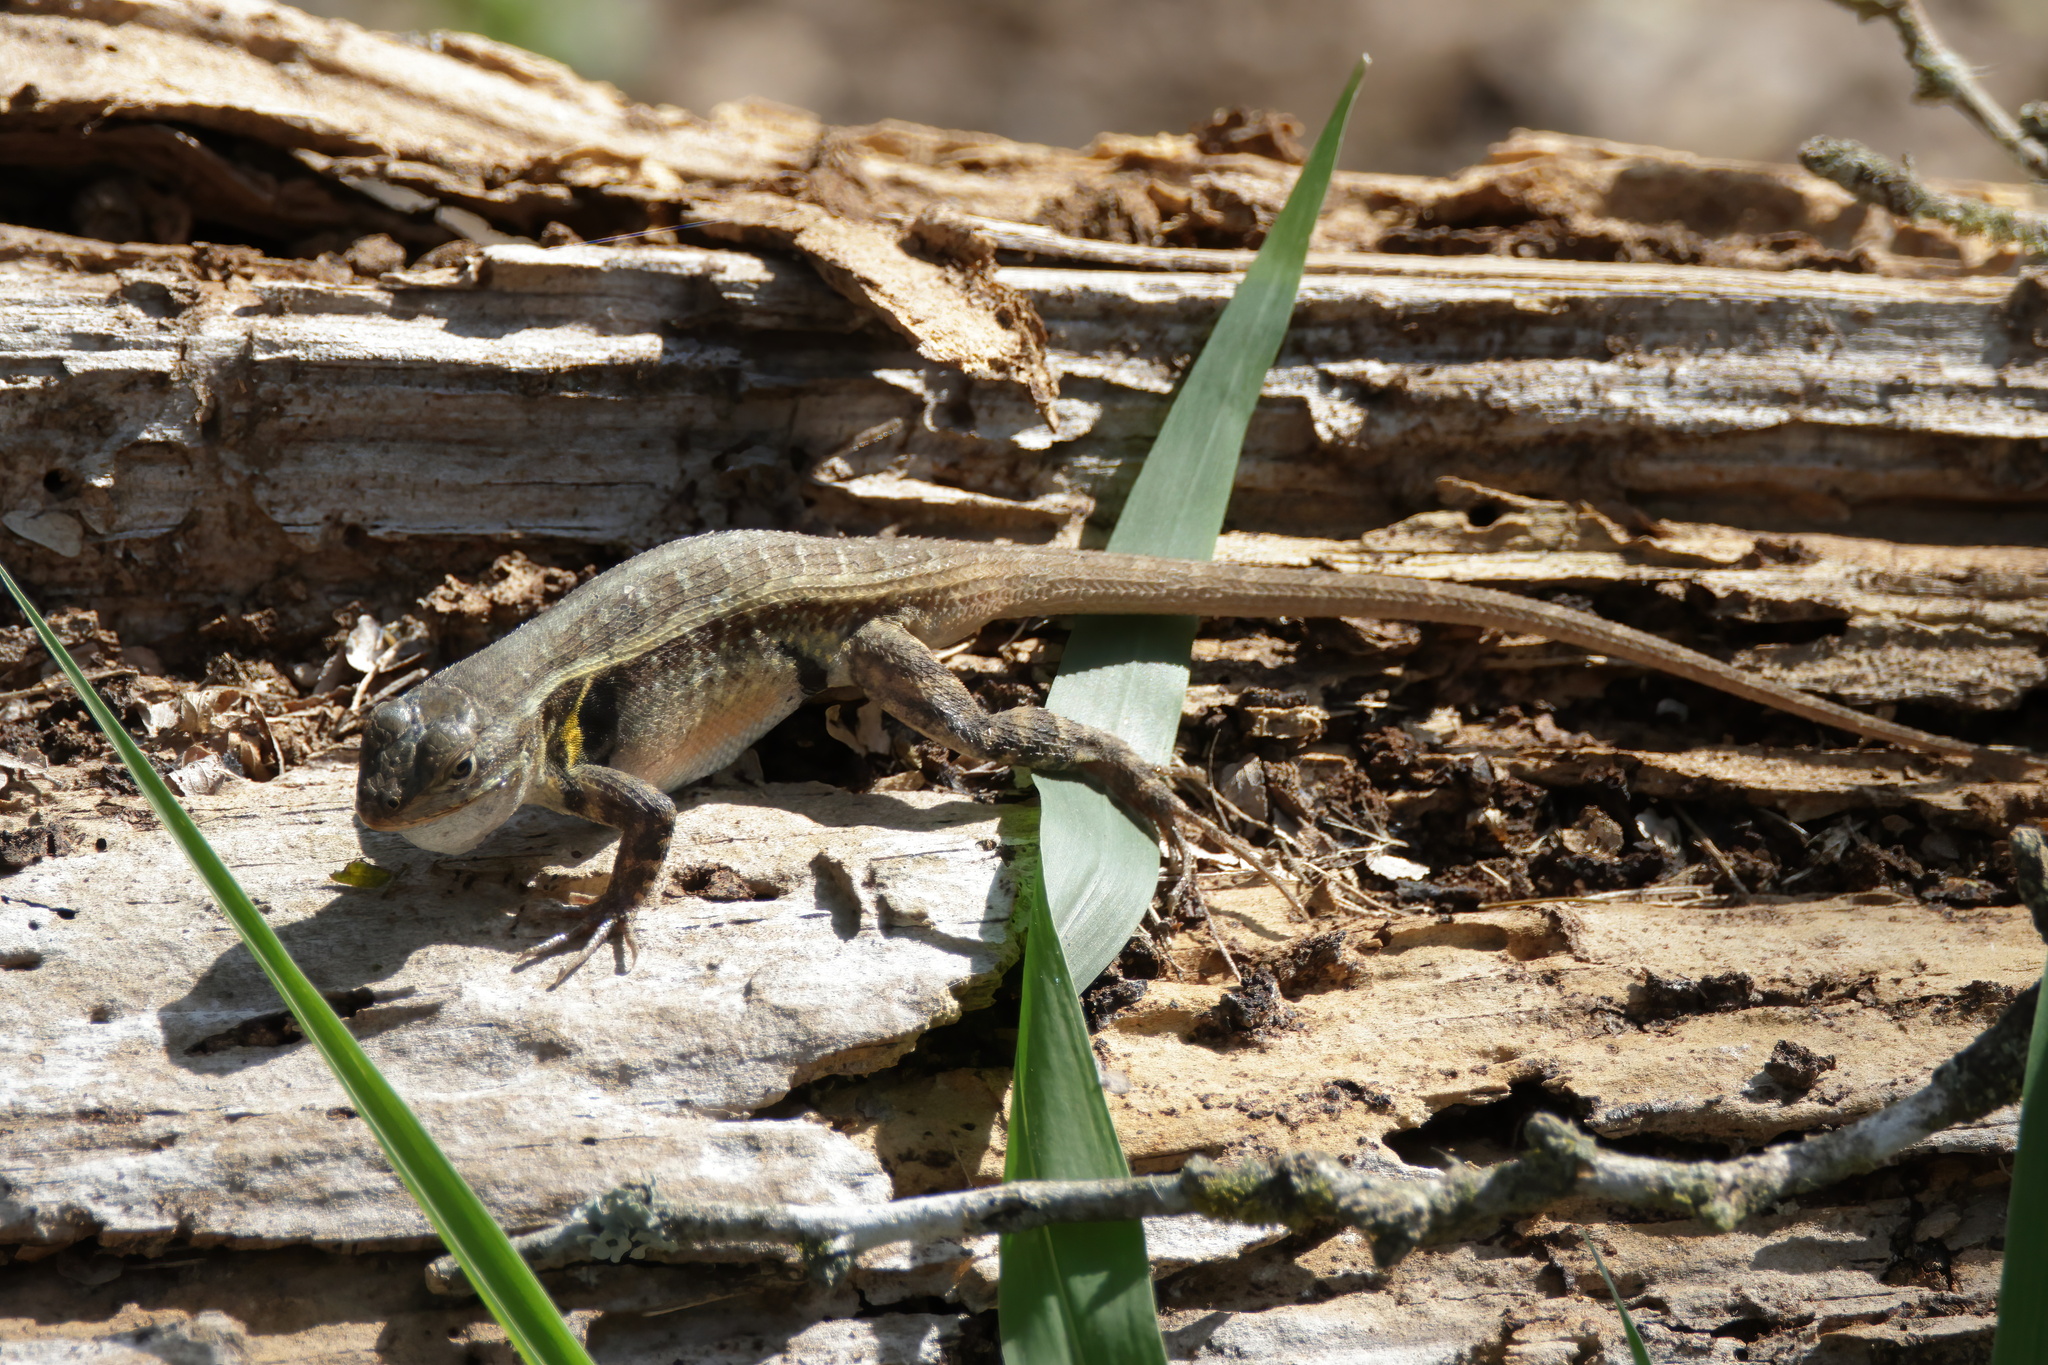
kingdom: Animalia
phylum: Chordata
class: Squamata
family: Phrynosomatidae
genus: Sceloporus
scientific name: Sceloporus variabilis
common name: Rosebelly lizard
